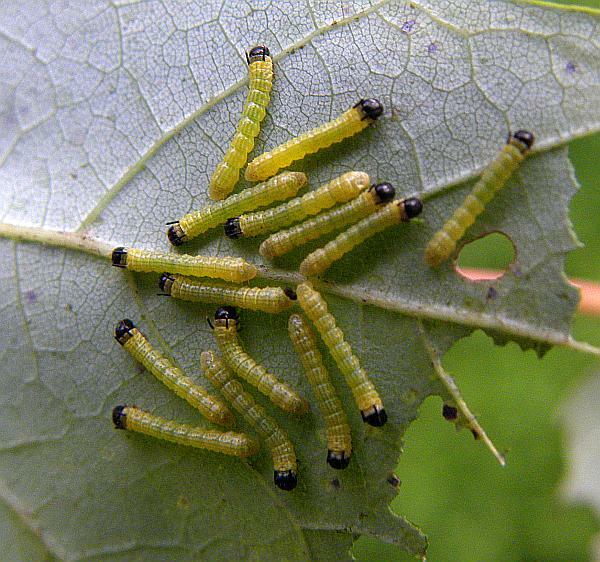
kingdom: Animalia
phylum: Arthropoda
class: Insecta
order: Lepidoptera
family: Saturniidae
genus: Dryocampa
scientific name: Dryocampa rubicunda
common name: Rosy maple moth
